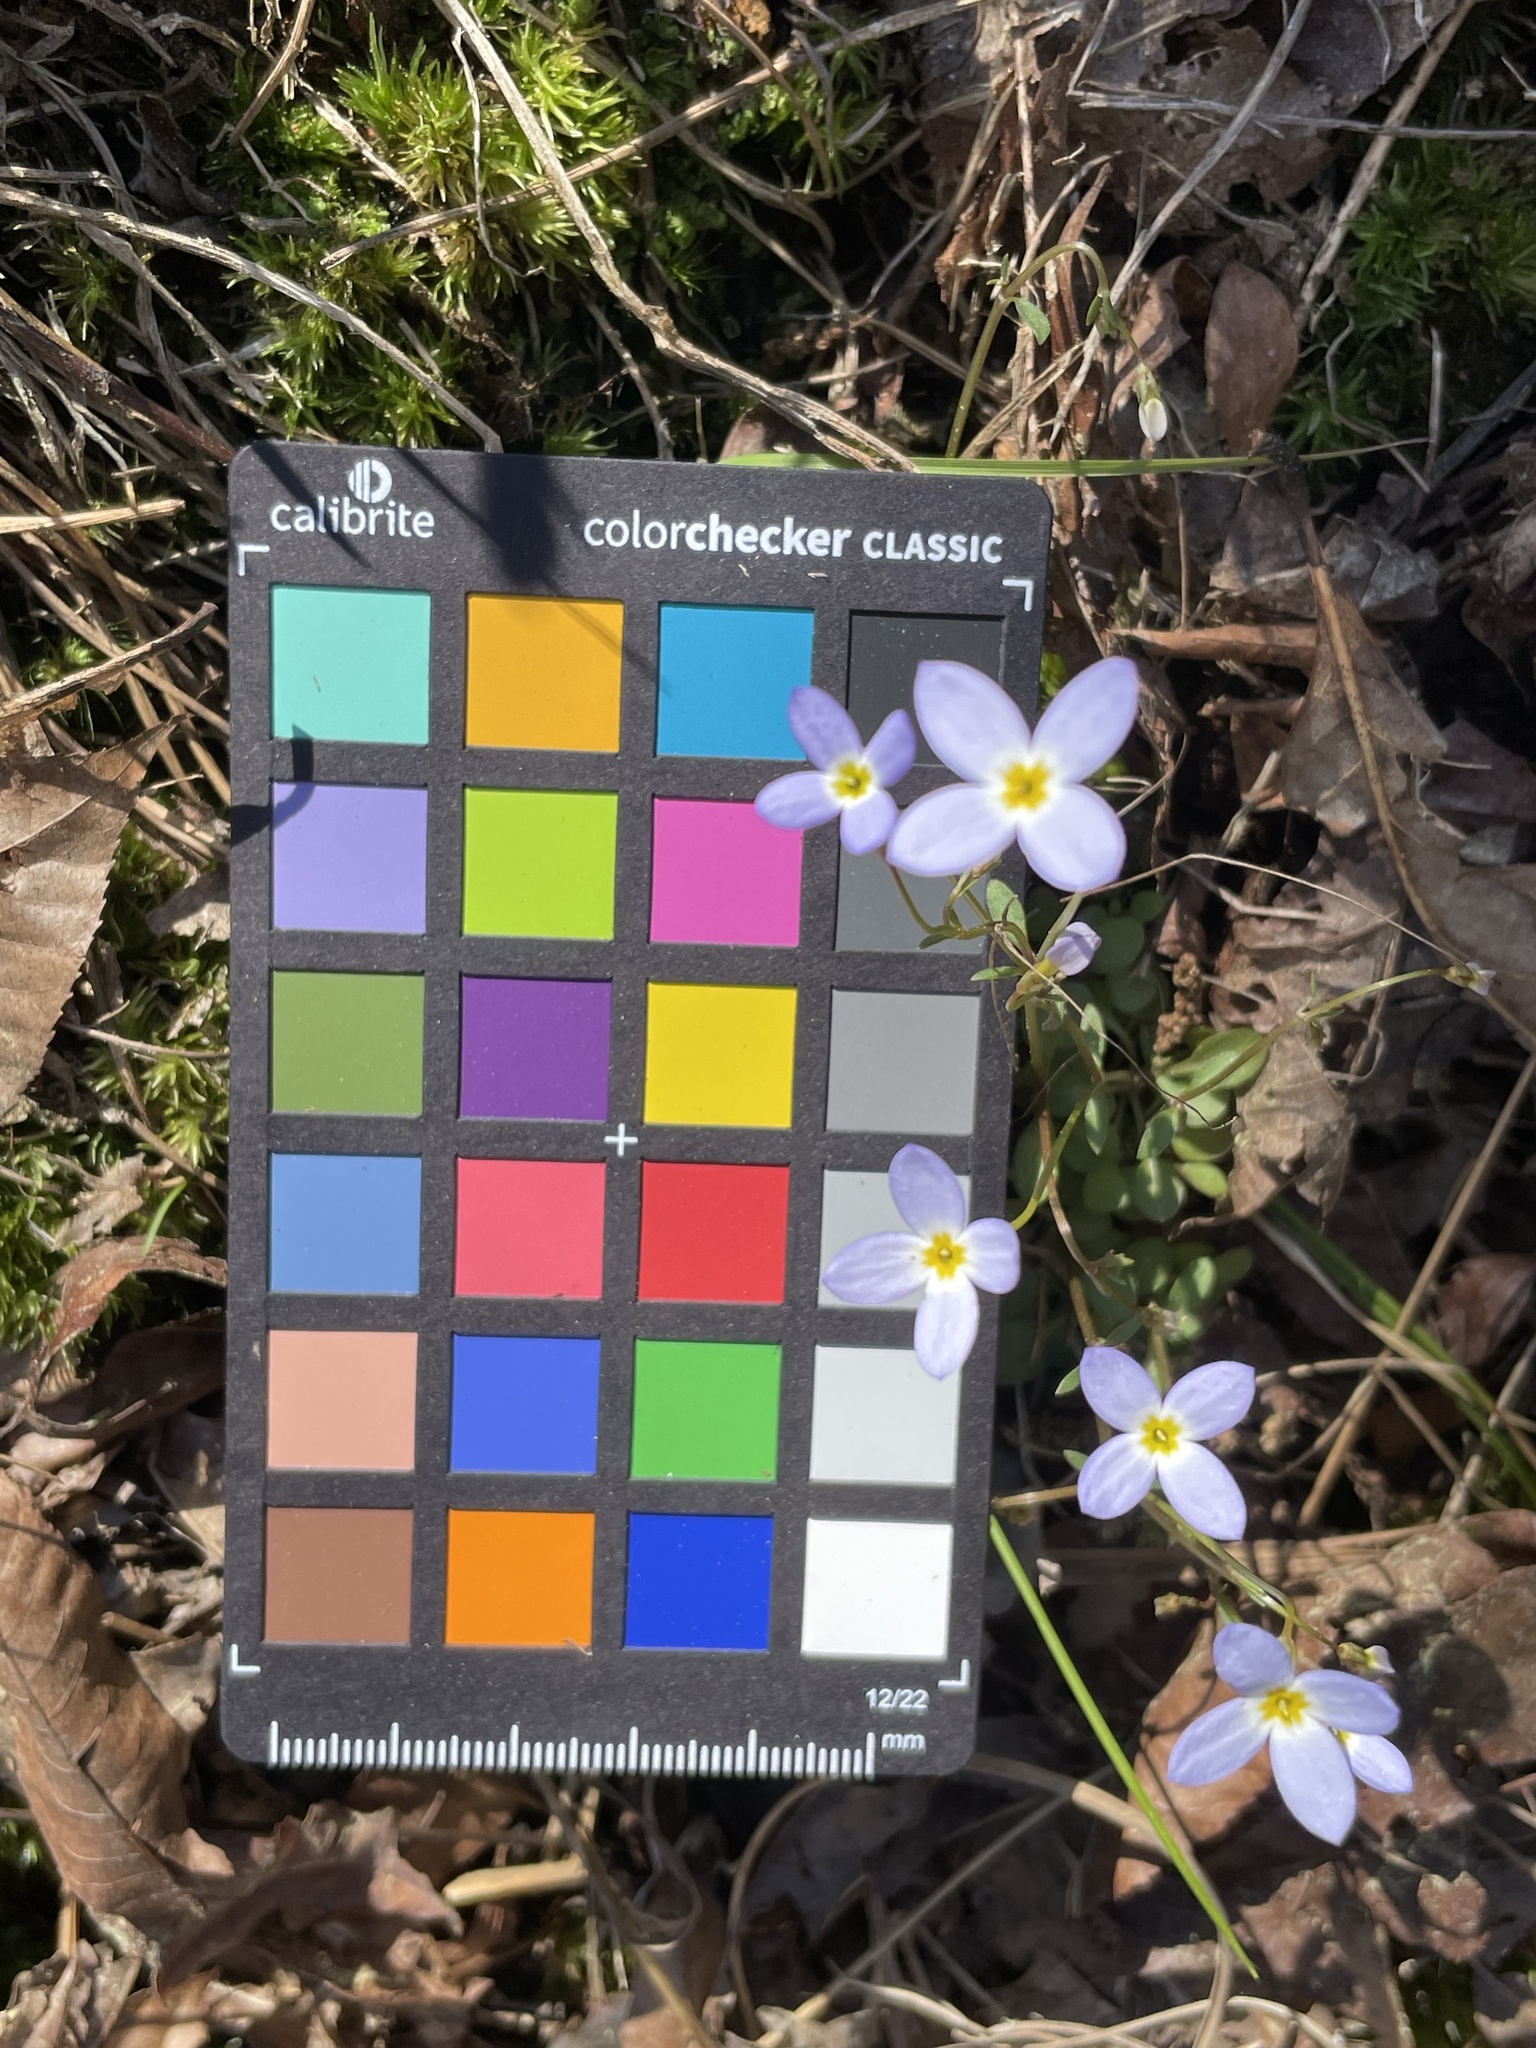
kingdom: Plantae
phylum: Tracheophyta
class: Magnoliopsida
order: Gentianales
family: Rubiaceae
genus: Houstonia
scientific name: Houstonia caerulea
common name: Bluets
